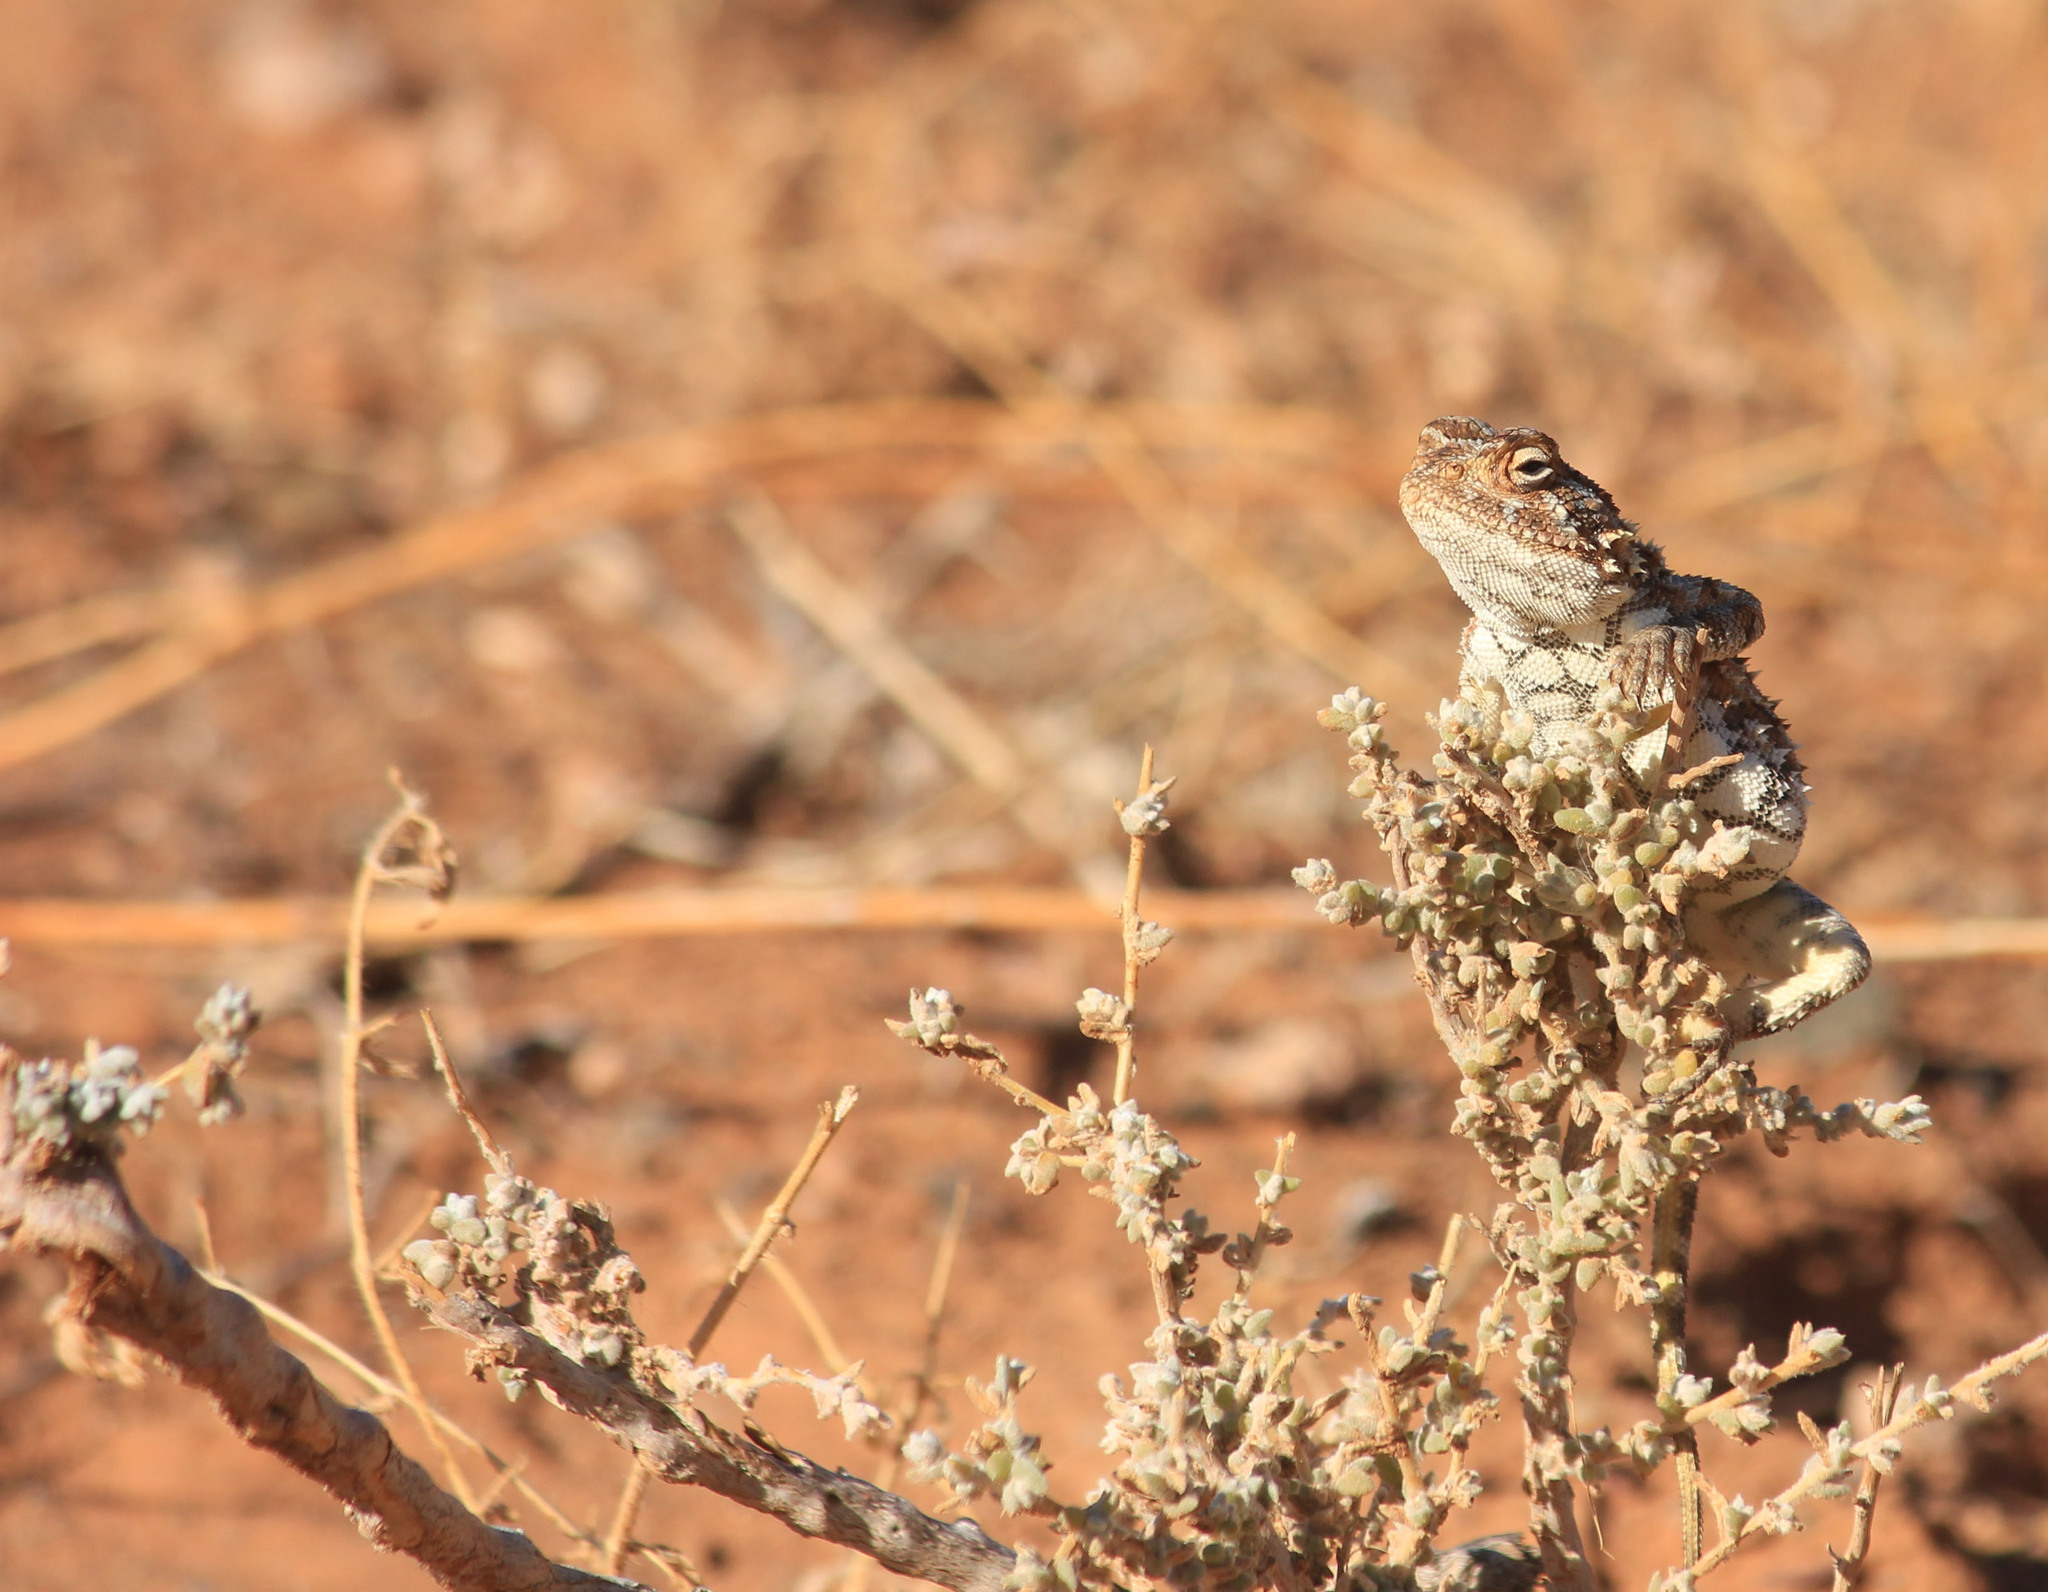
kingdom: Animalia
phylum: Chordata
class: Squamata
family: Agamidae
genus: Agama
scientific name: Agama hispida
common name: Common spiny agama
